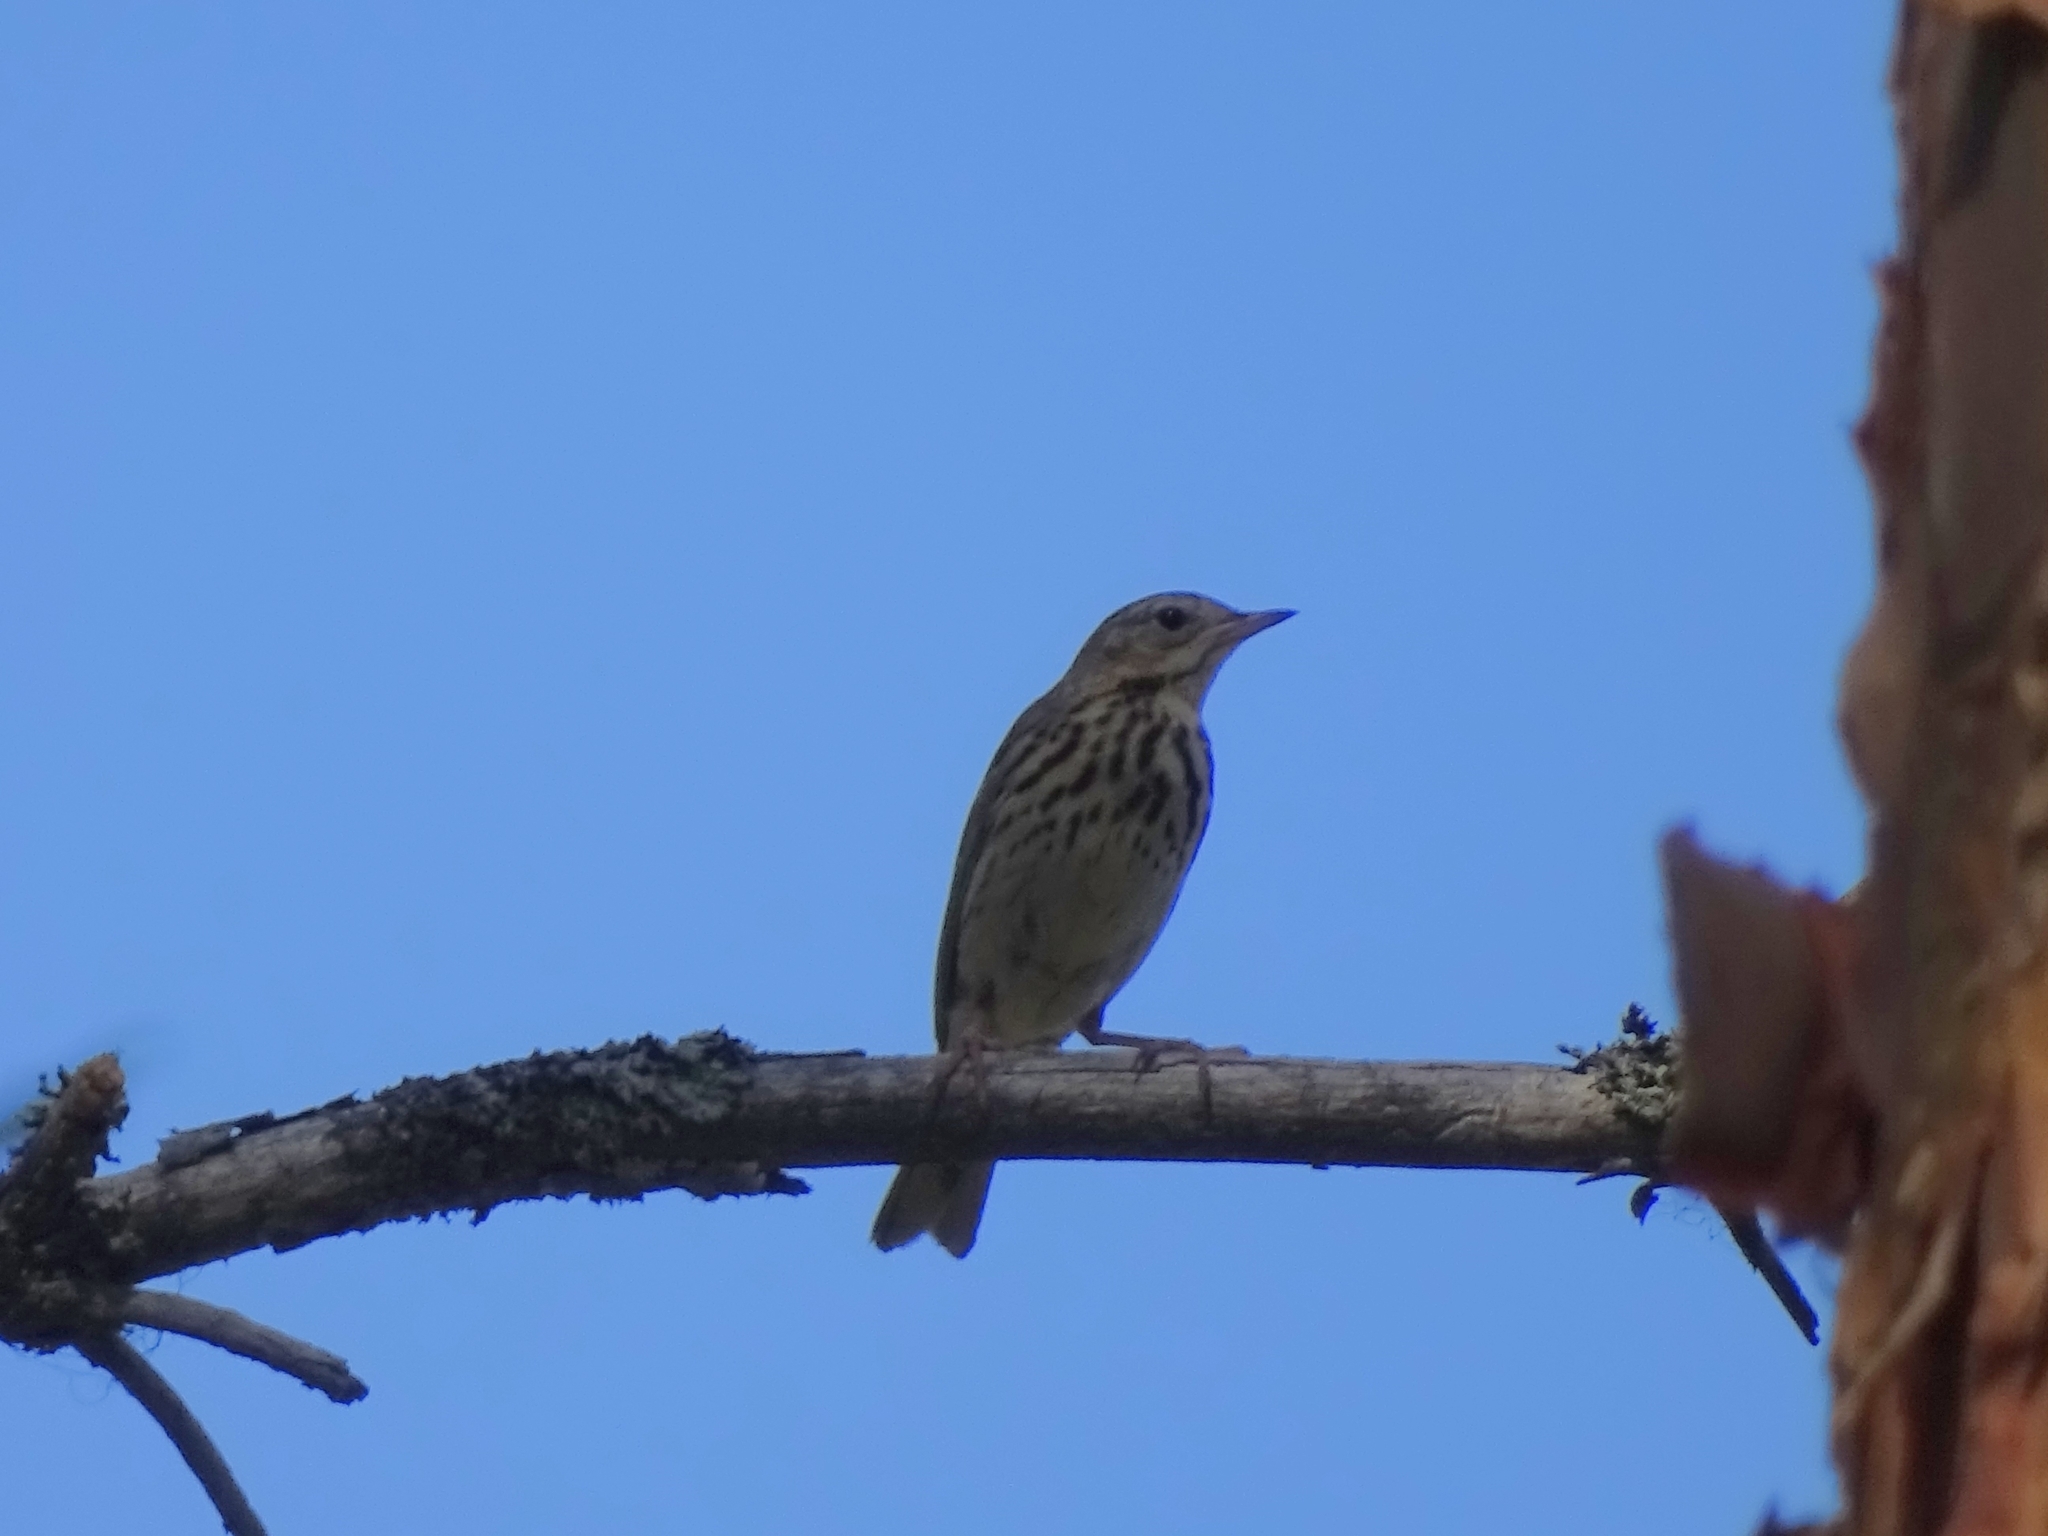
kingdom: Animalia
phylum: Chordata
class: Aves
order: Passeriformes
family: Motacillidae
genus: Anthus
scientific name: Anthus trivialis
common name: Tree pipit
